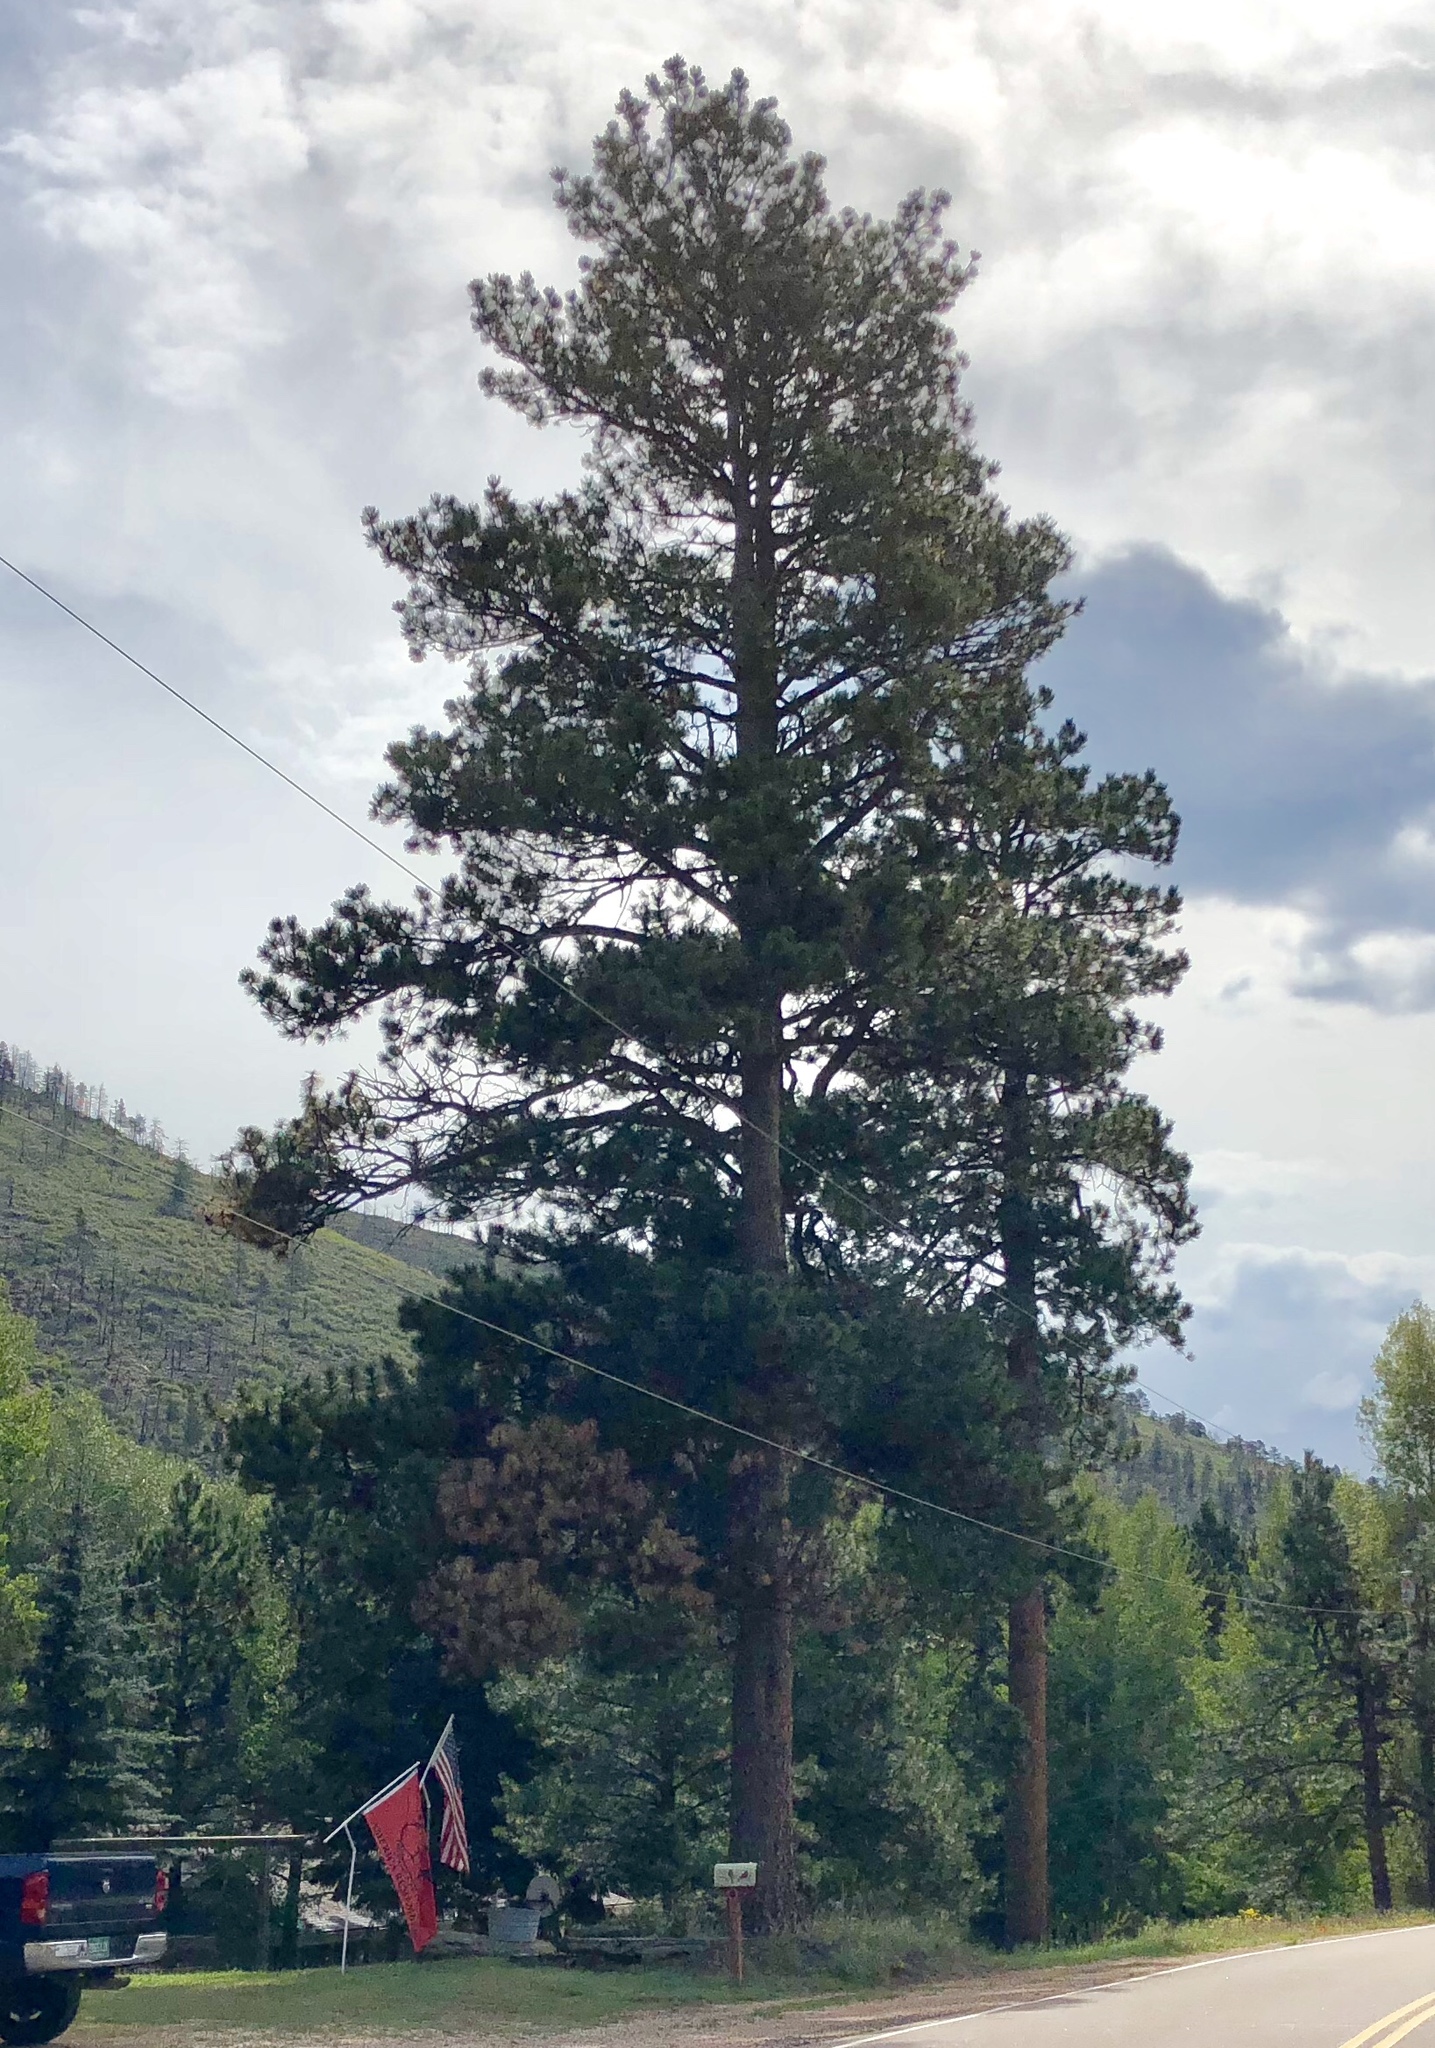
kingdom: Plantae
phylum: Tracheophyta
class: Pinopsida
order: Pinales
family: Pinaceae
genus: Pinus
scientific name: Pinus ponderosa
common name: Western yellow-pine
